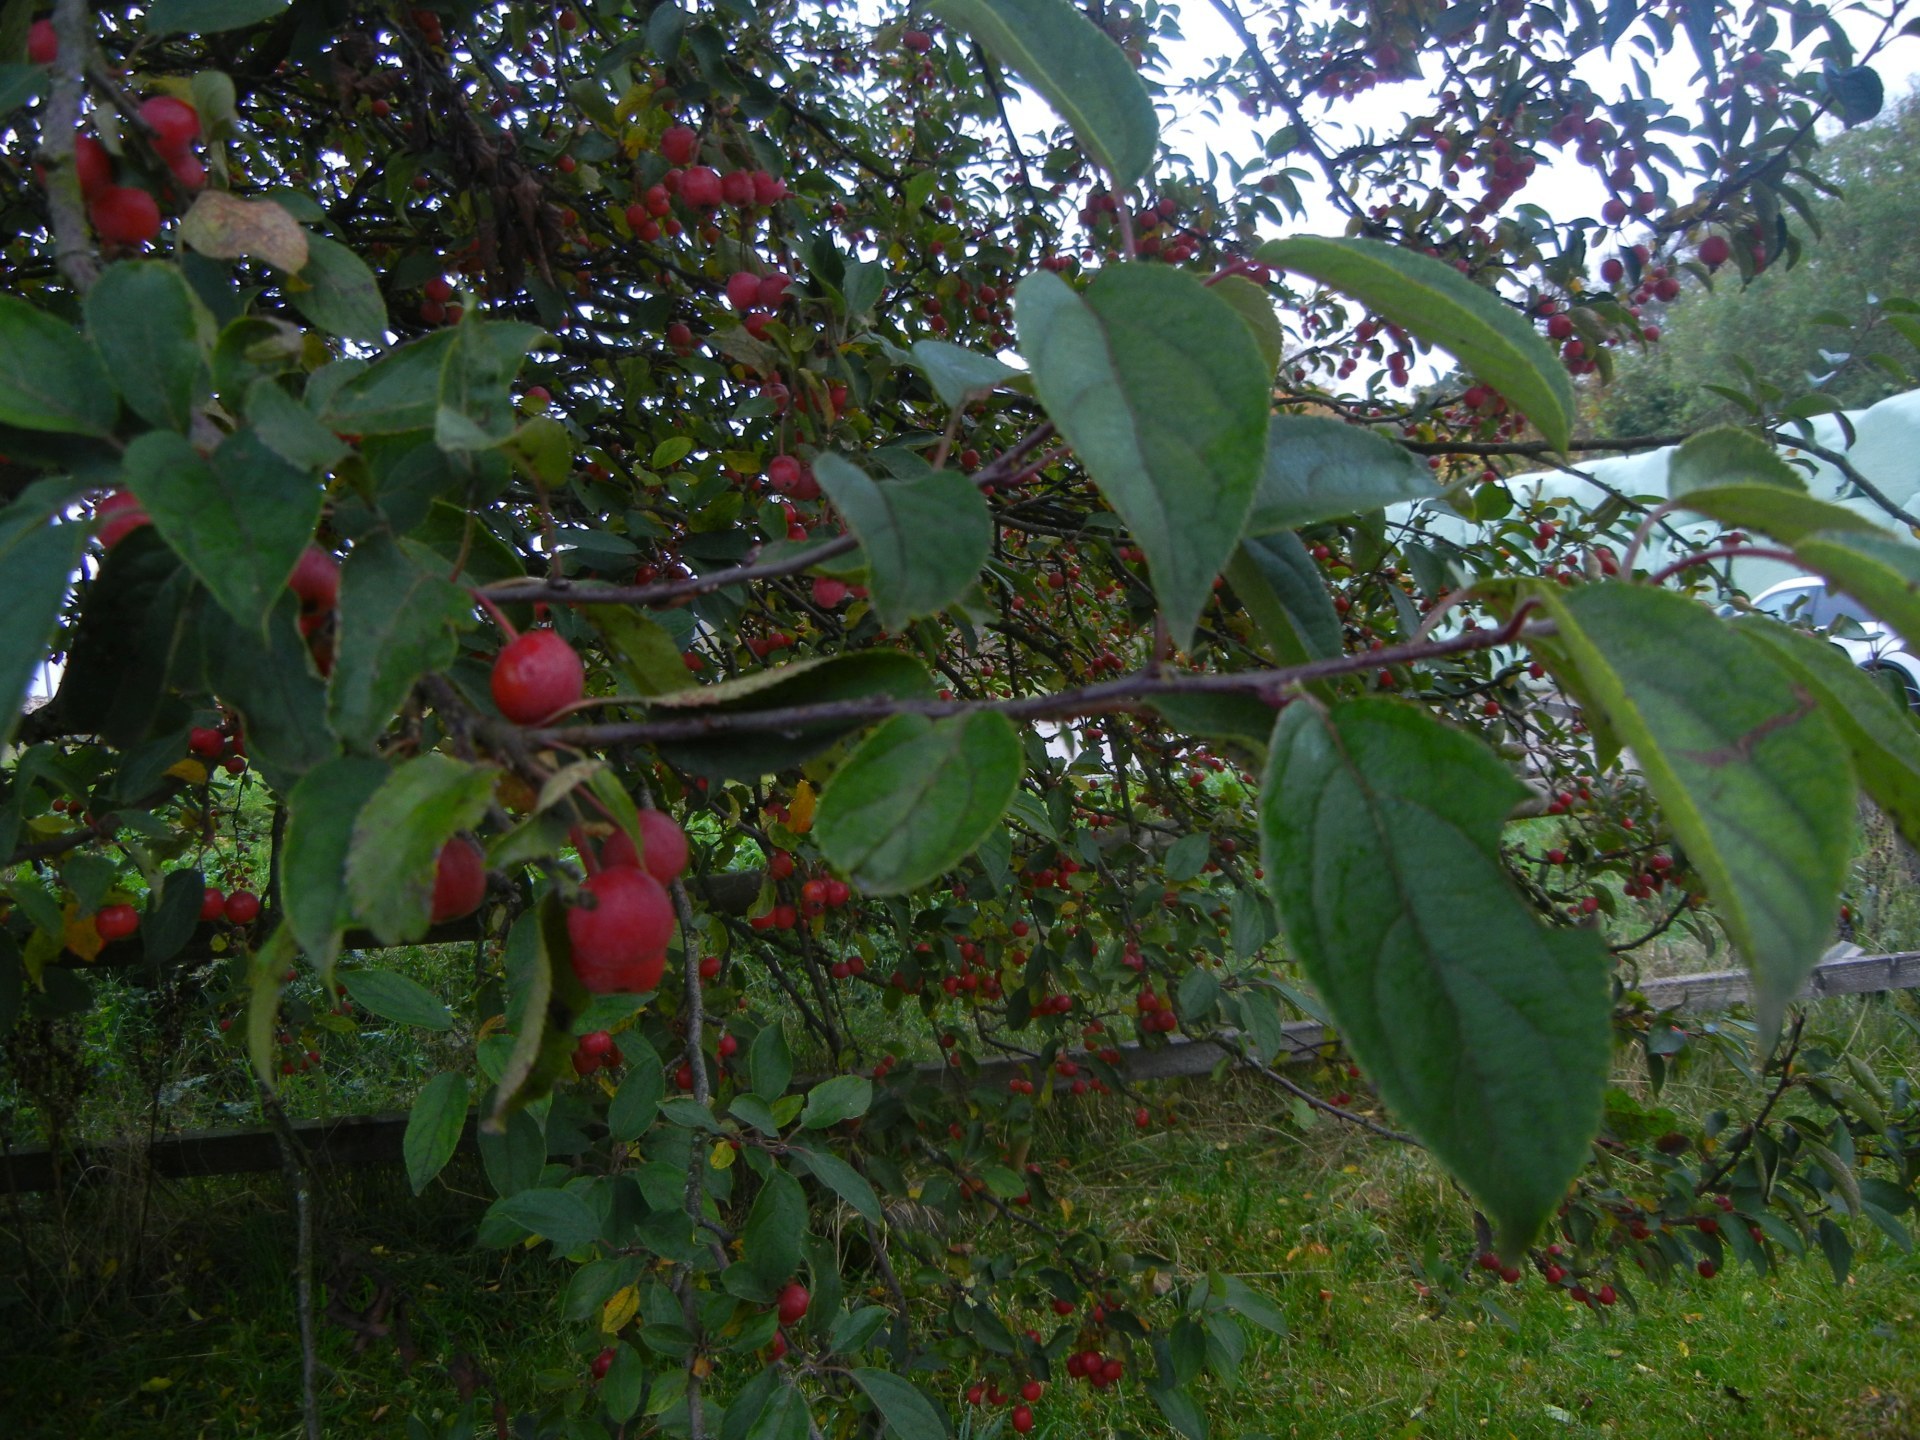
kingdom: Plantae
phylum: Tracheophyta
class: Magnoliopsida
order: Rosales
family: Rosaceae
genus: Malus
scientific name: Malus sylvestris
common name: Crab apple
